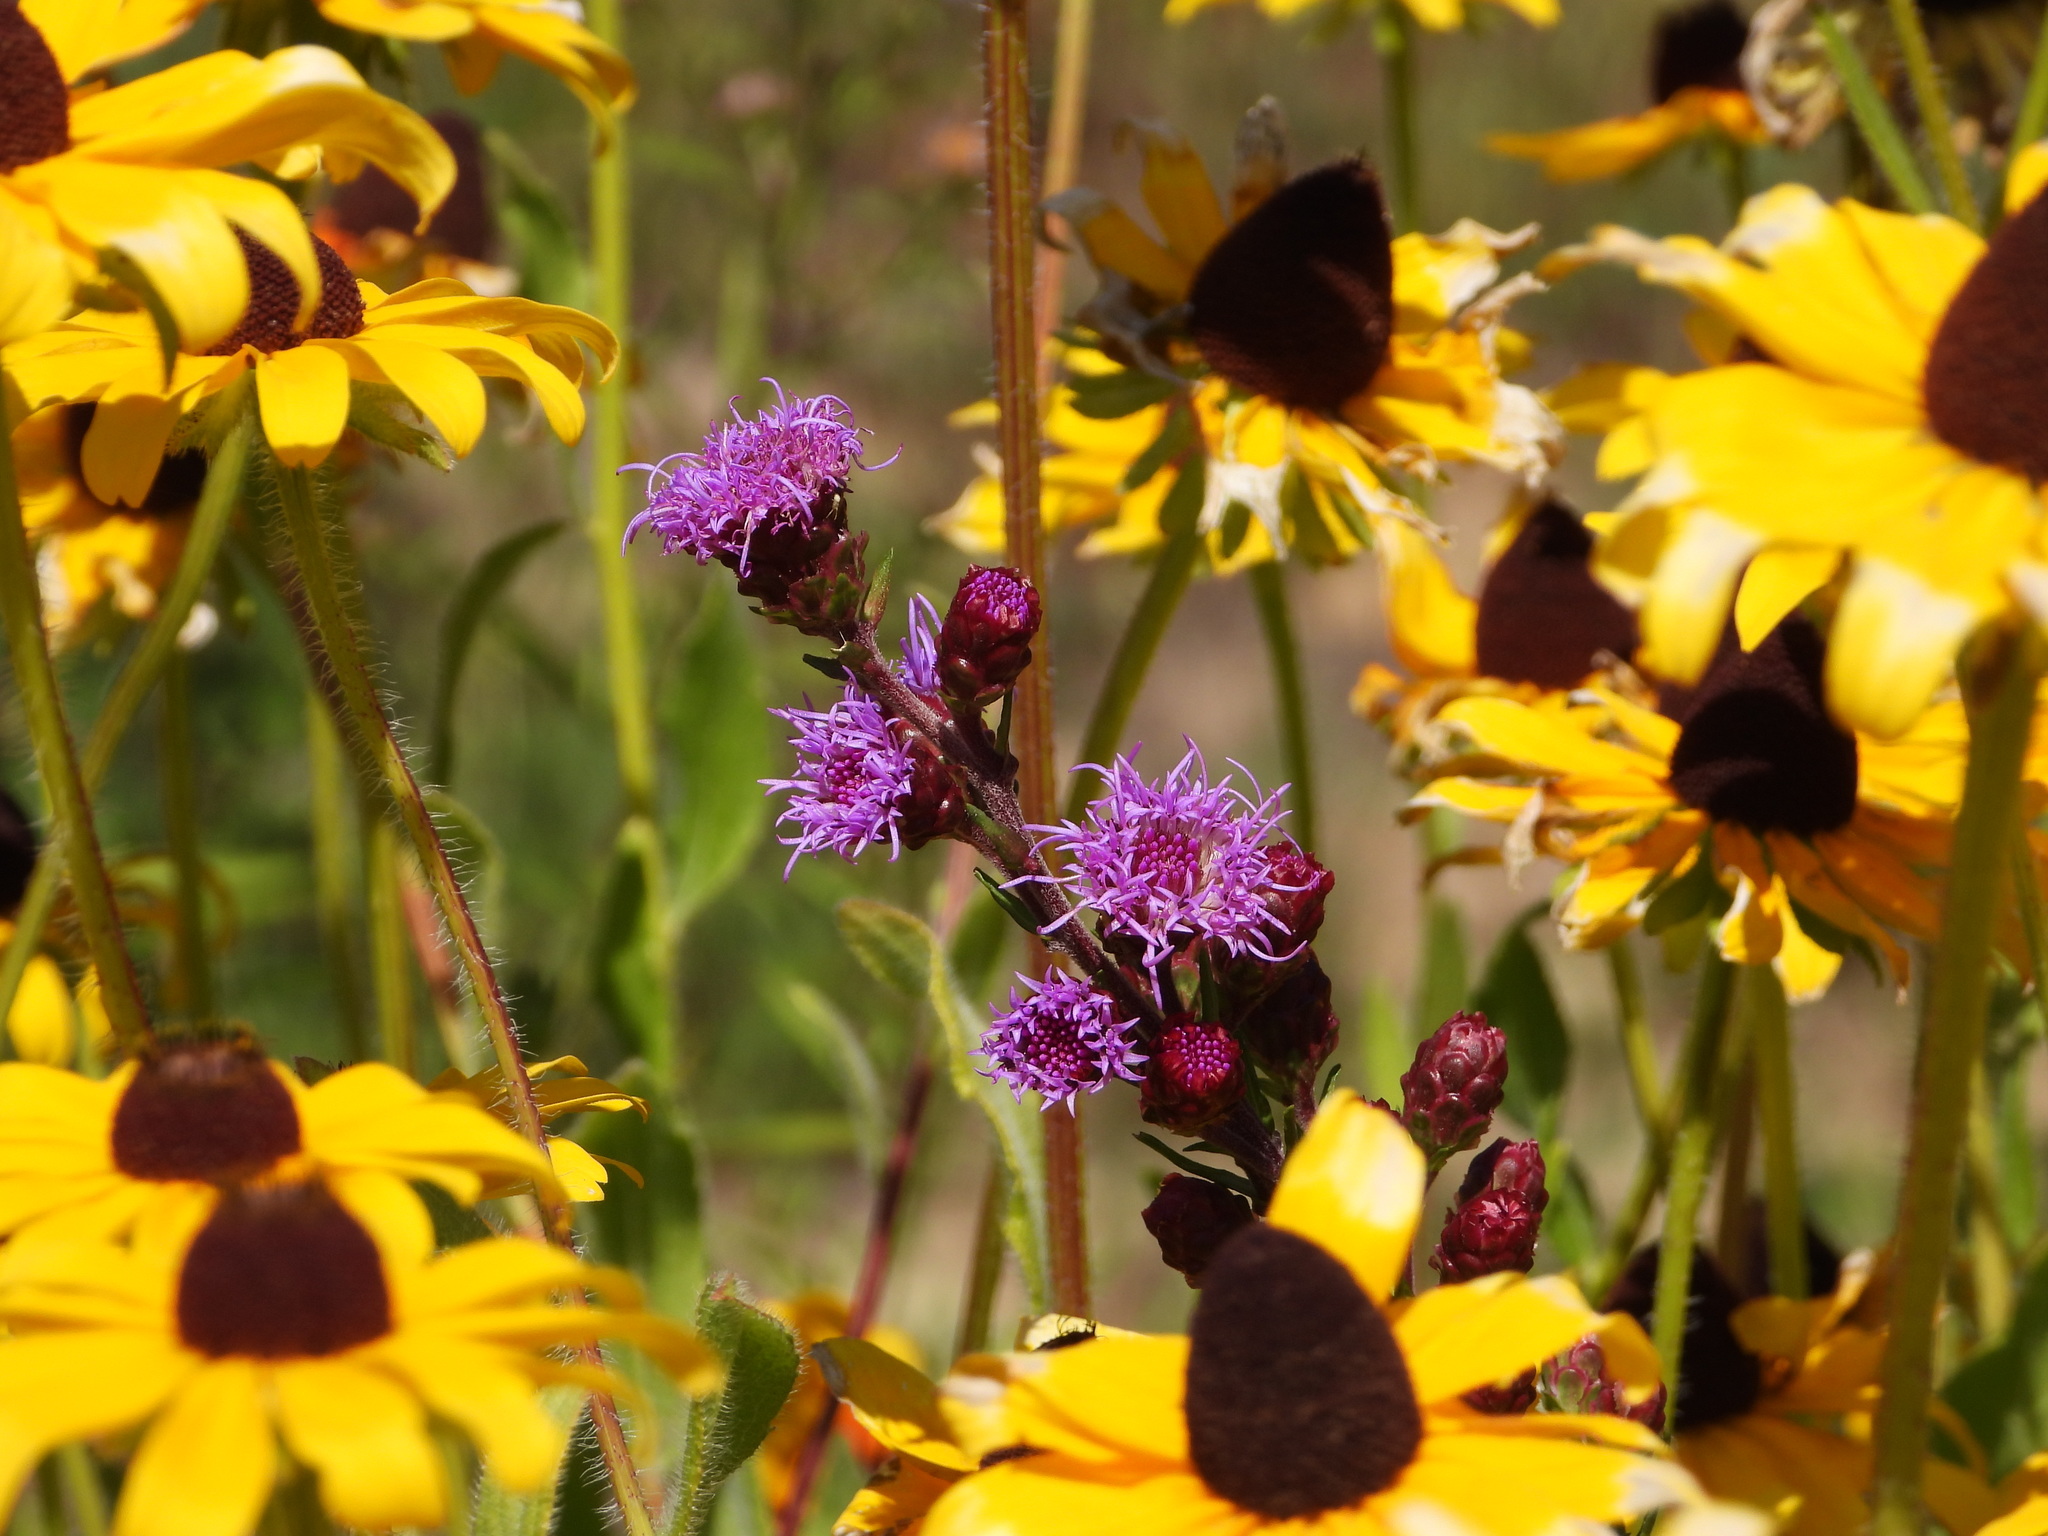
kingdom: Plantae
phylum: Tracheophyta
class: Magnoliopsida
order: Asterales
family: Asteraceae
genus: Liatris
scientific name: Liatris ligulistylis
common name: Northern plains gayfeather
